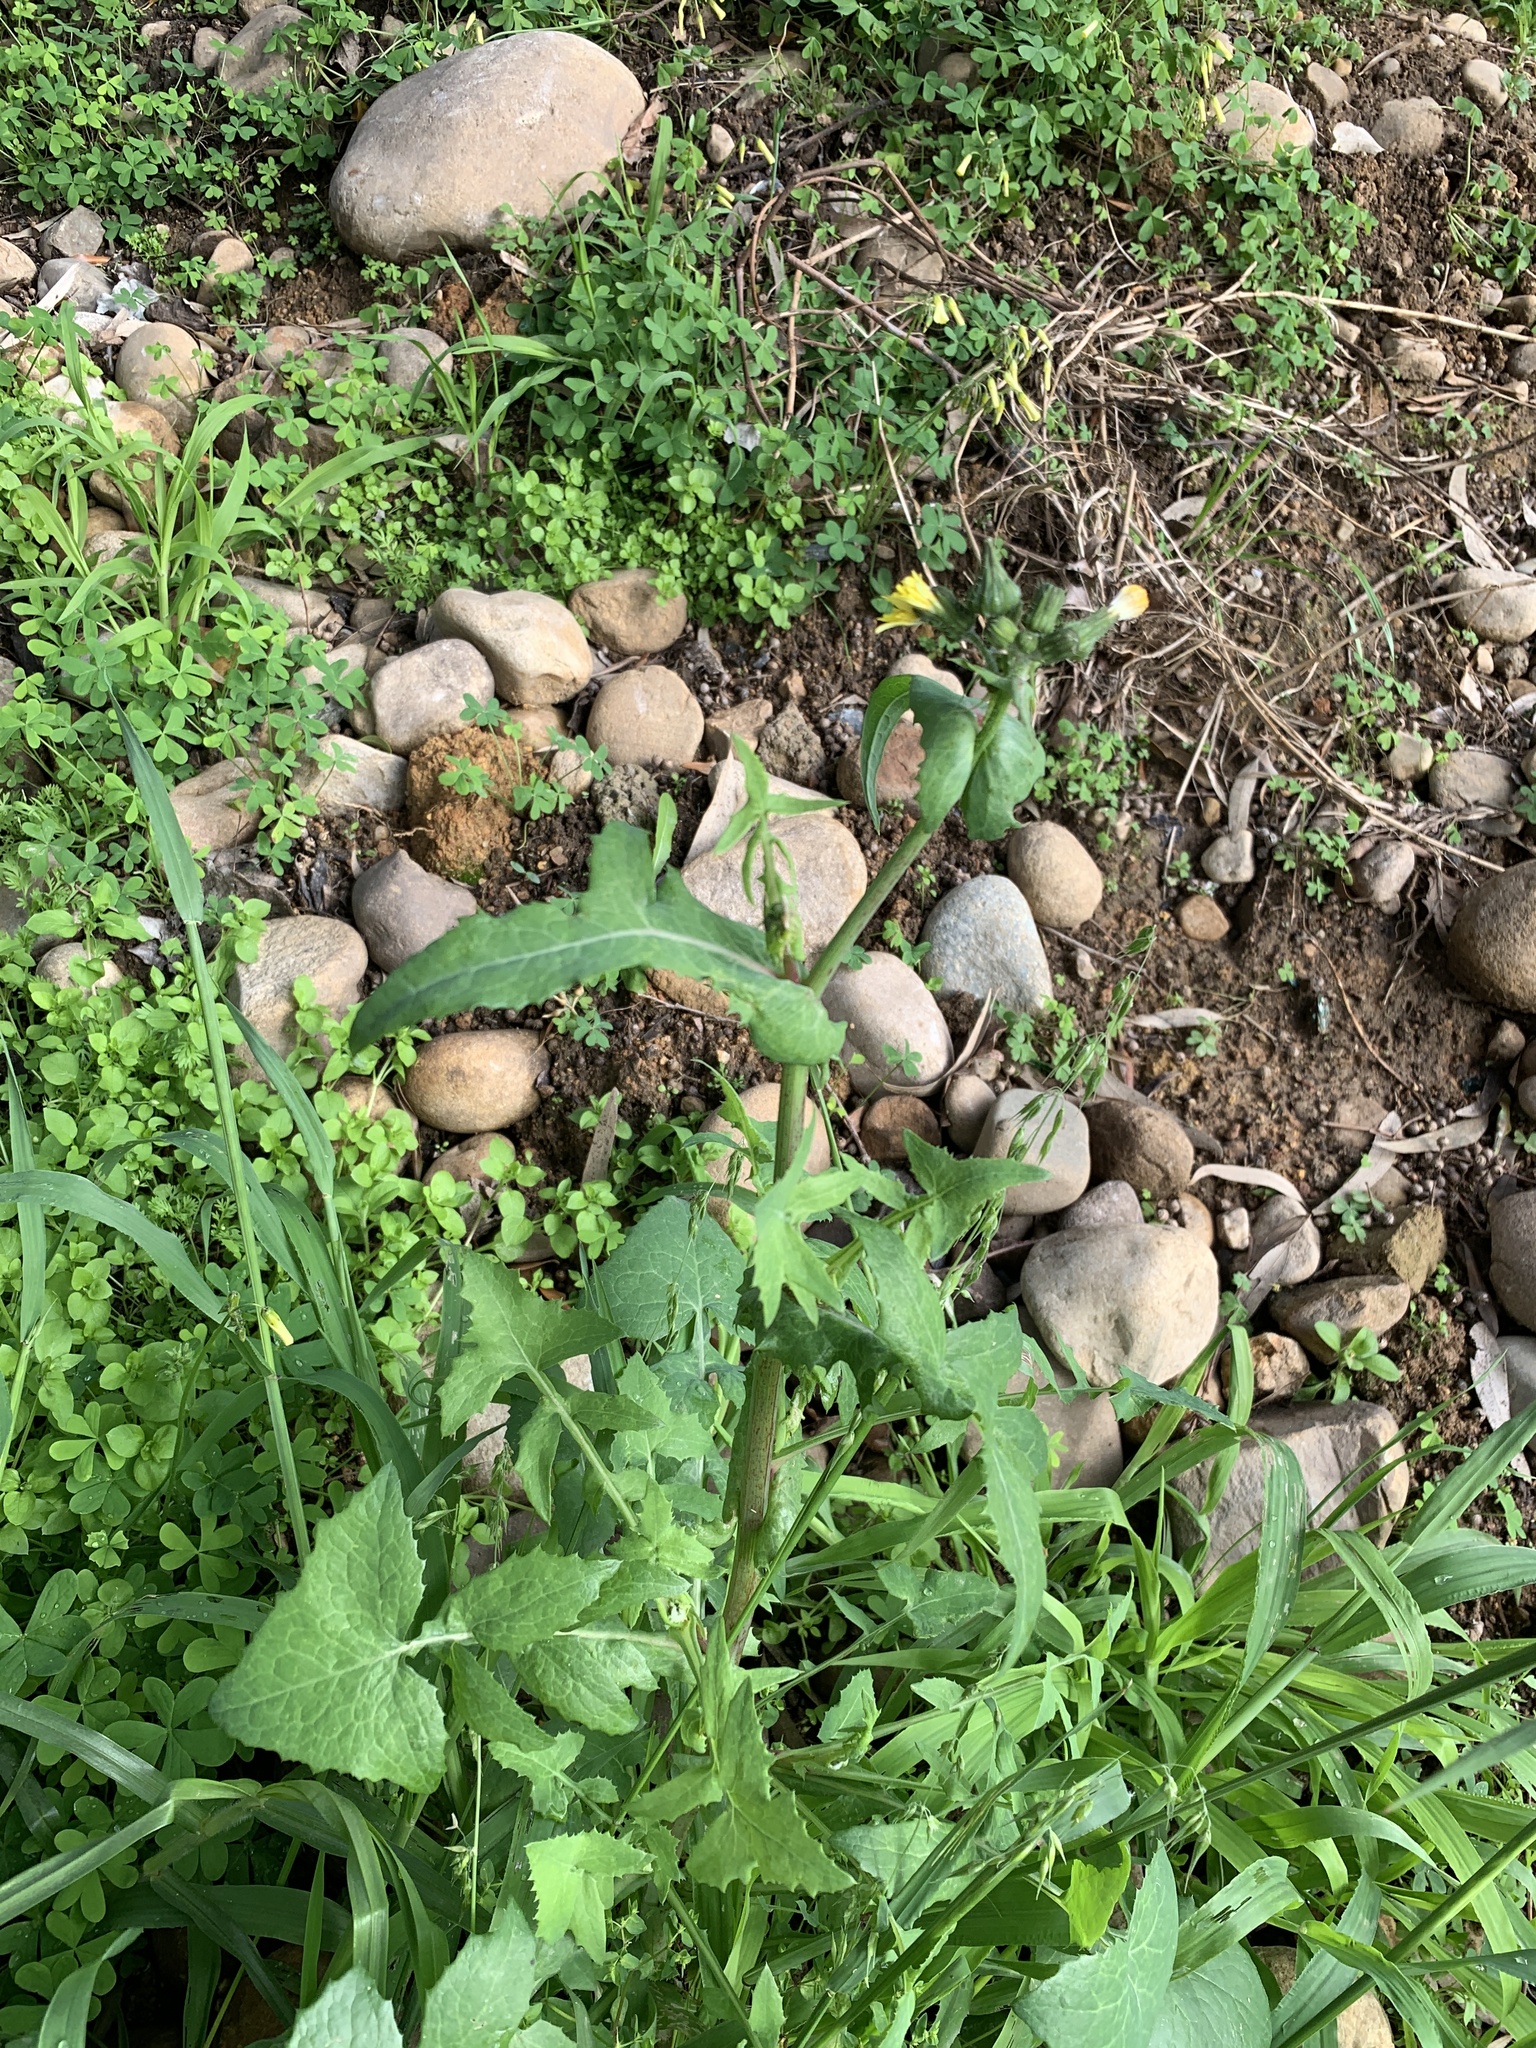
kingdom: Plantae
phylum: Tracheophyta
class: Magnoliopsida
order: Asterales
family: Asteraceae
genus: Sonchus
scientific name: Sonchus oleraceus
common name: Common sowthistle
